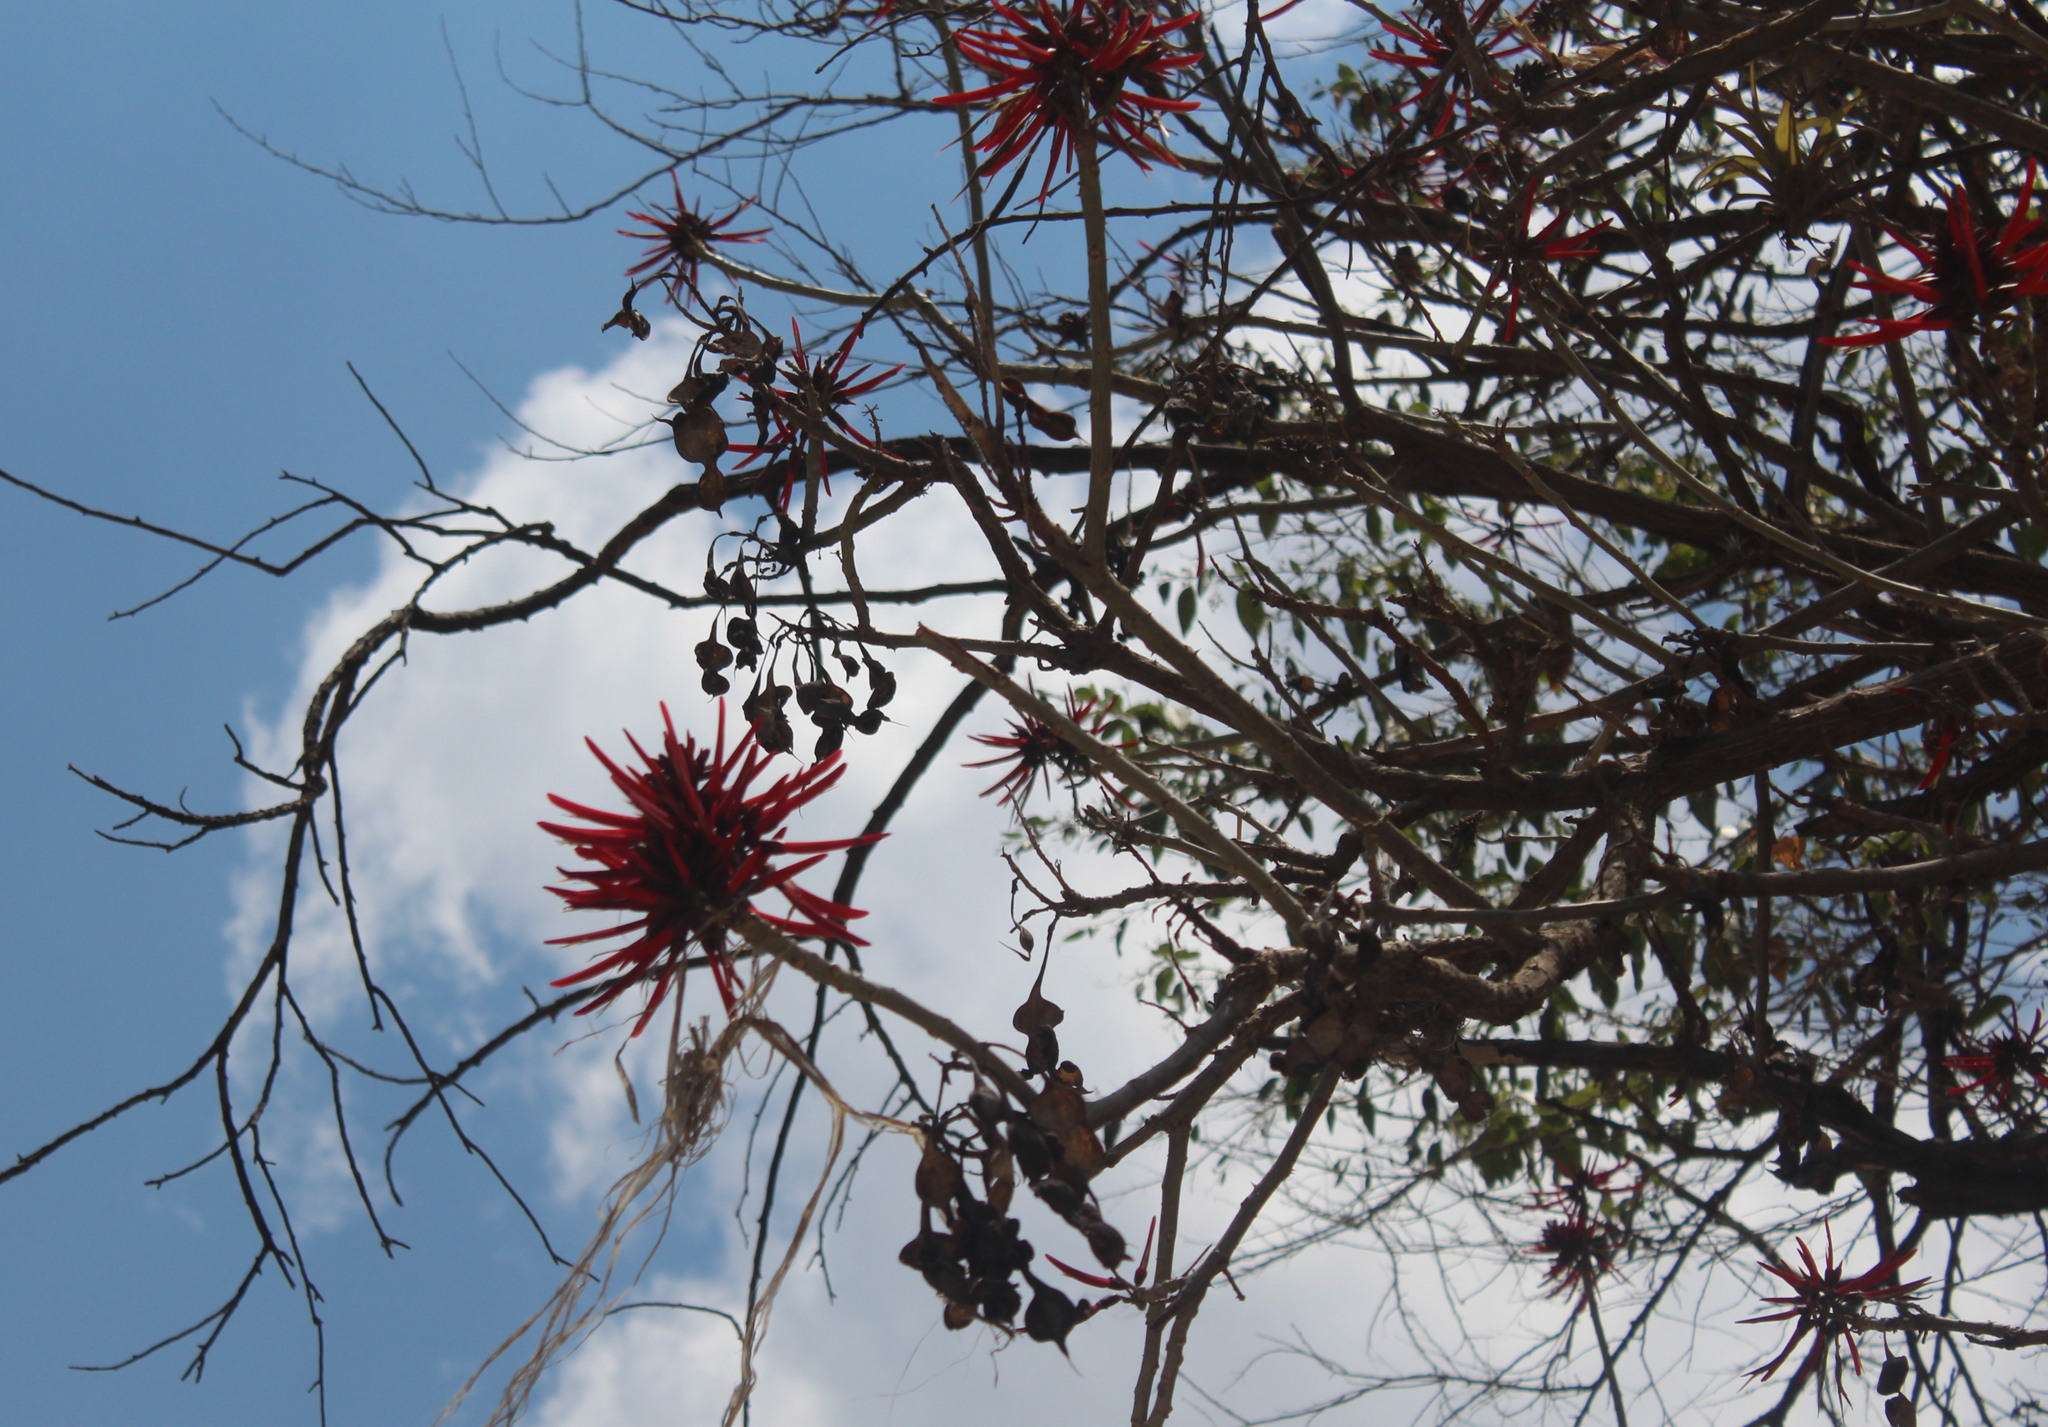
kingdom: Plantae
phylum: Tracheophyta
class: Magnoliopsida
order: Fabales
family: Fabaceae
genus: Erythrina
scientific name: Erythrina americana
